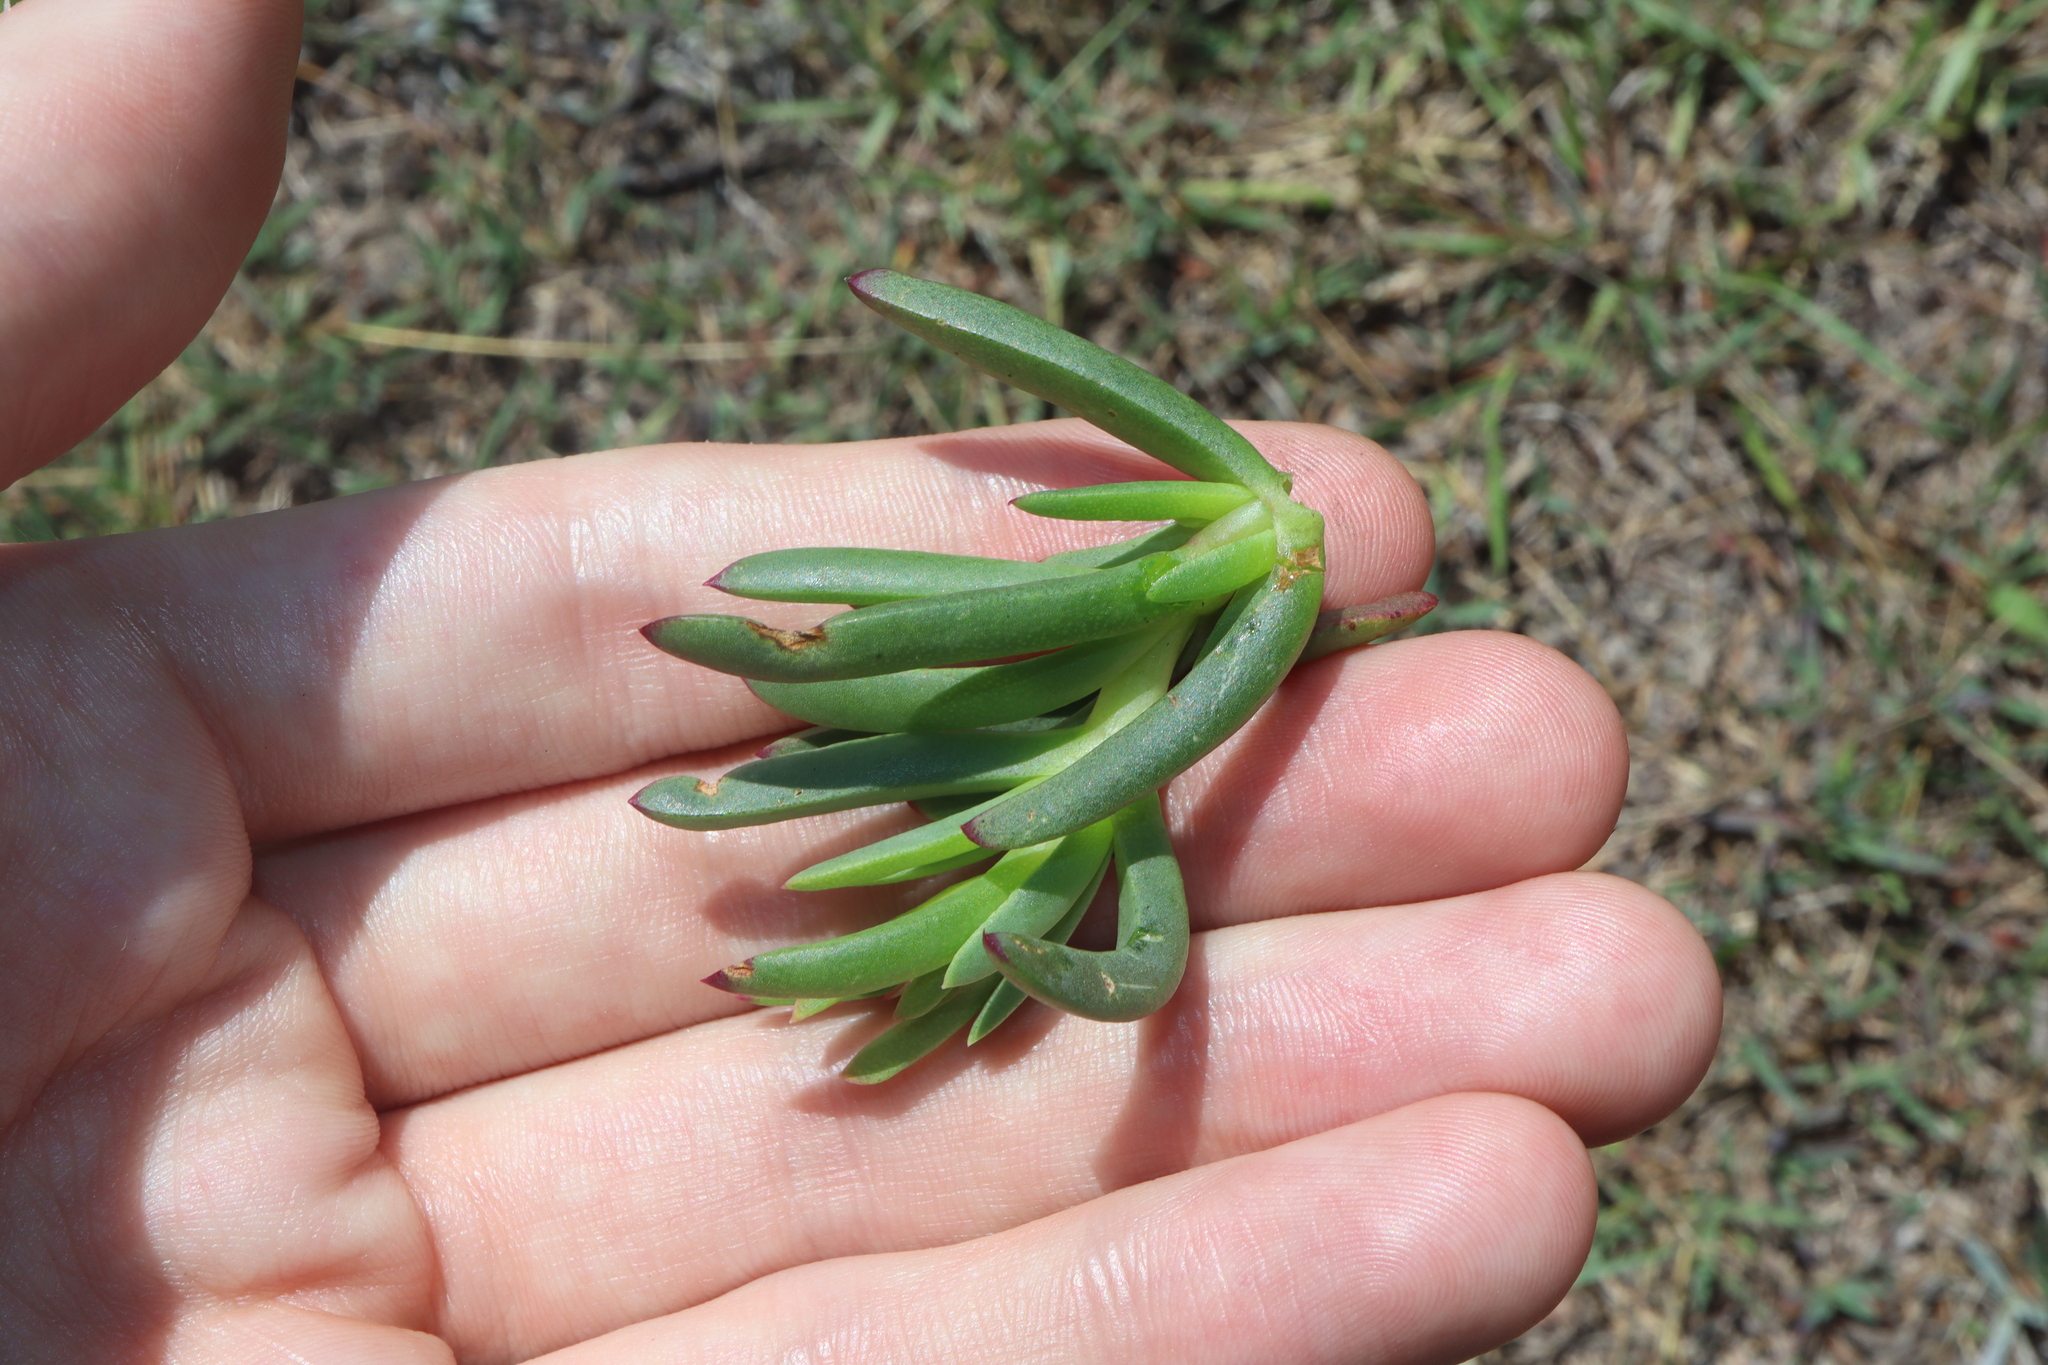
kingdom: Plantae
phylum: Tracheophyta
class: Magnoliopsida
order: Caryophyllales
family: Aizoaceae
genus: Lampranthus
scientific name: Lampranthus spectabilis
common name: Trailing iceplant
